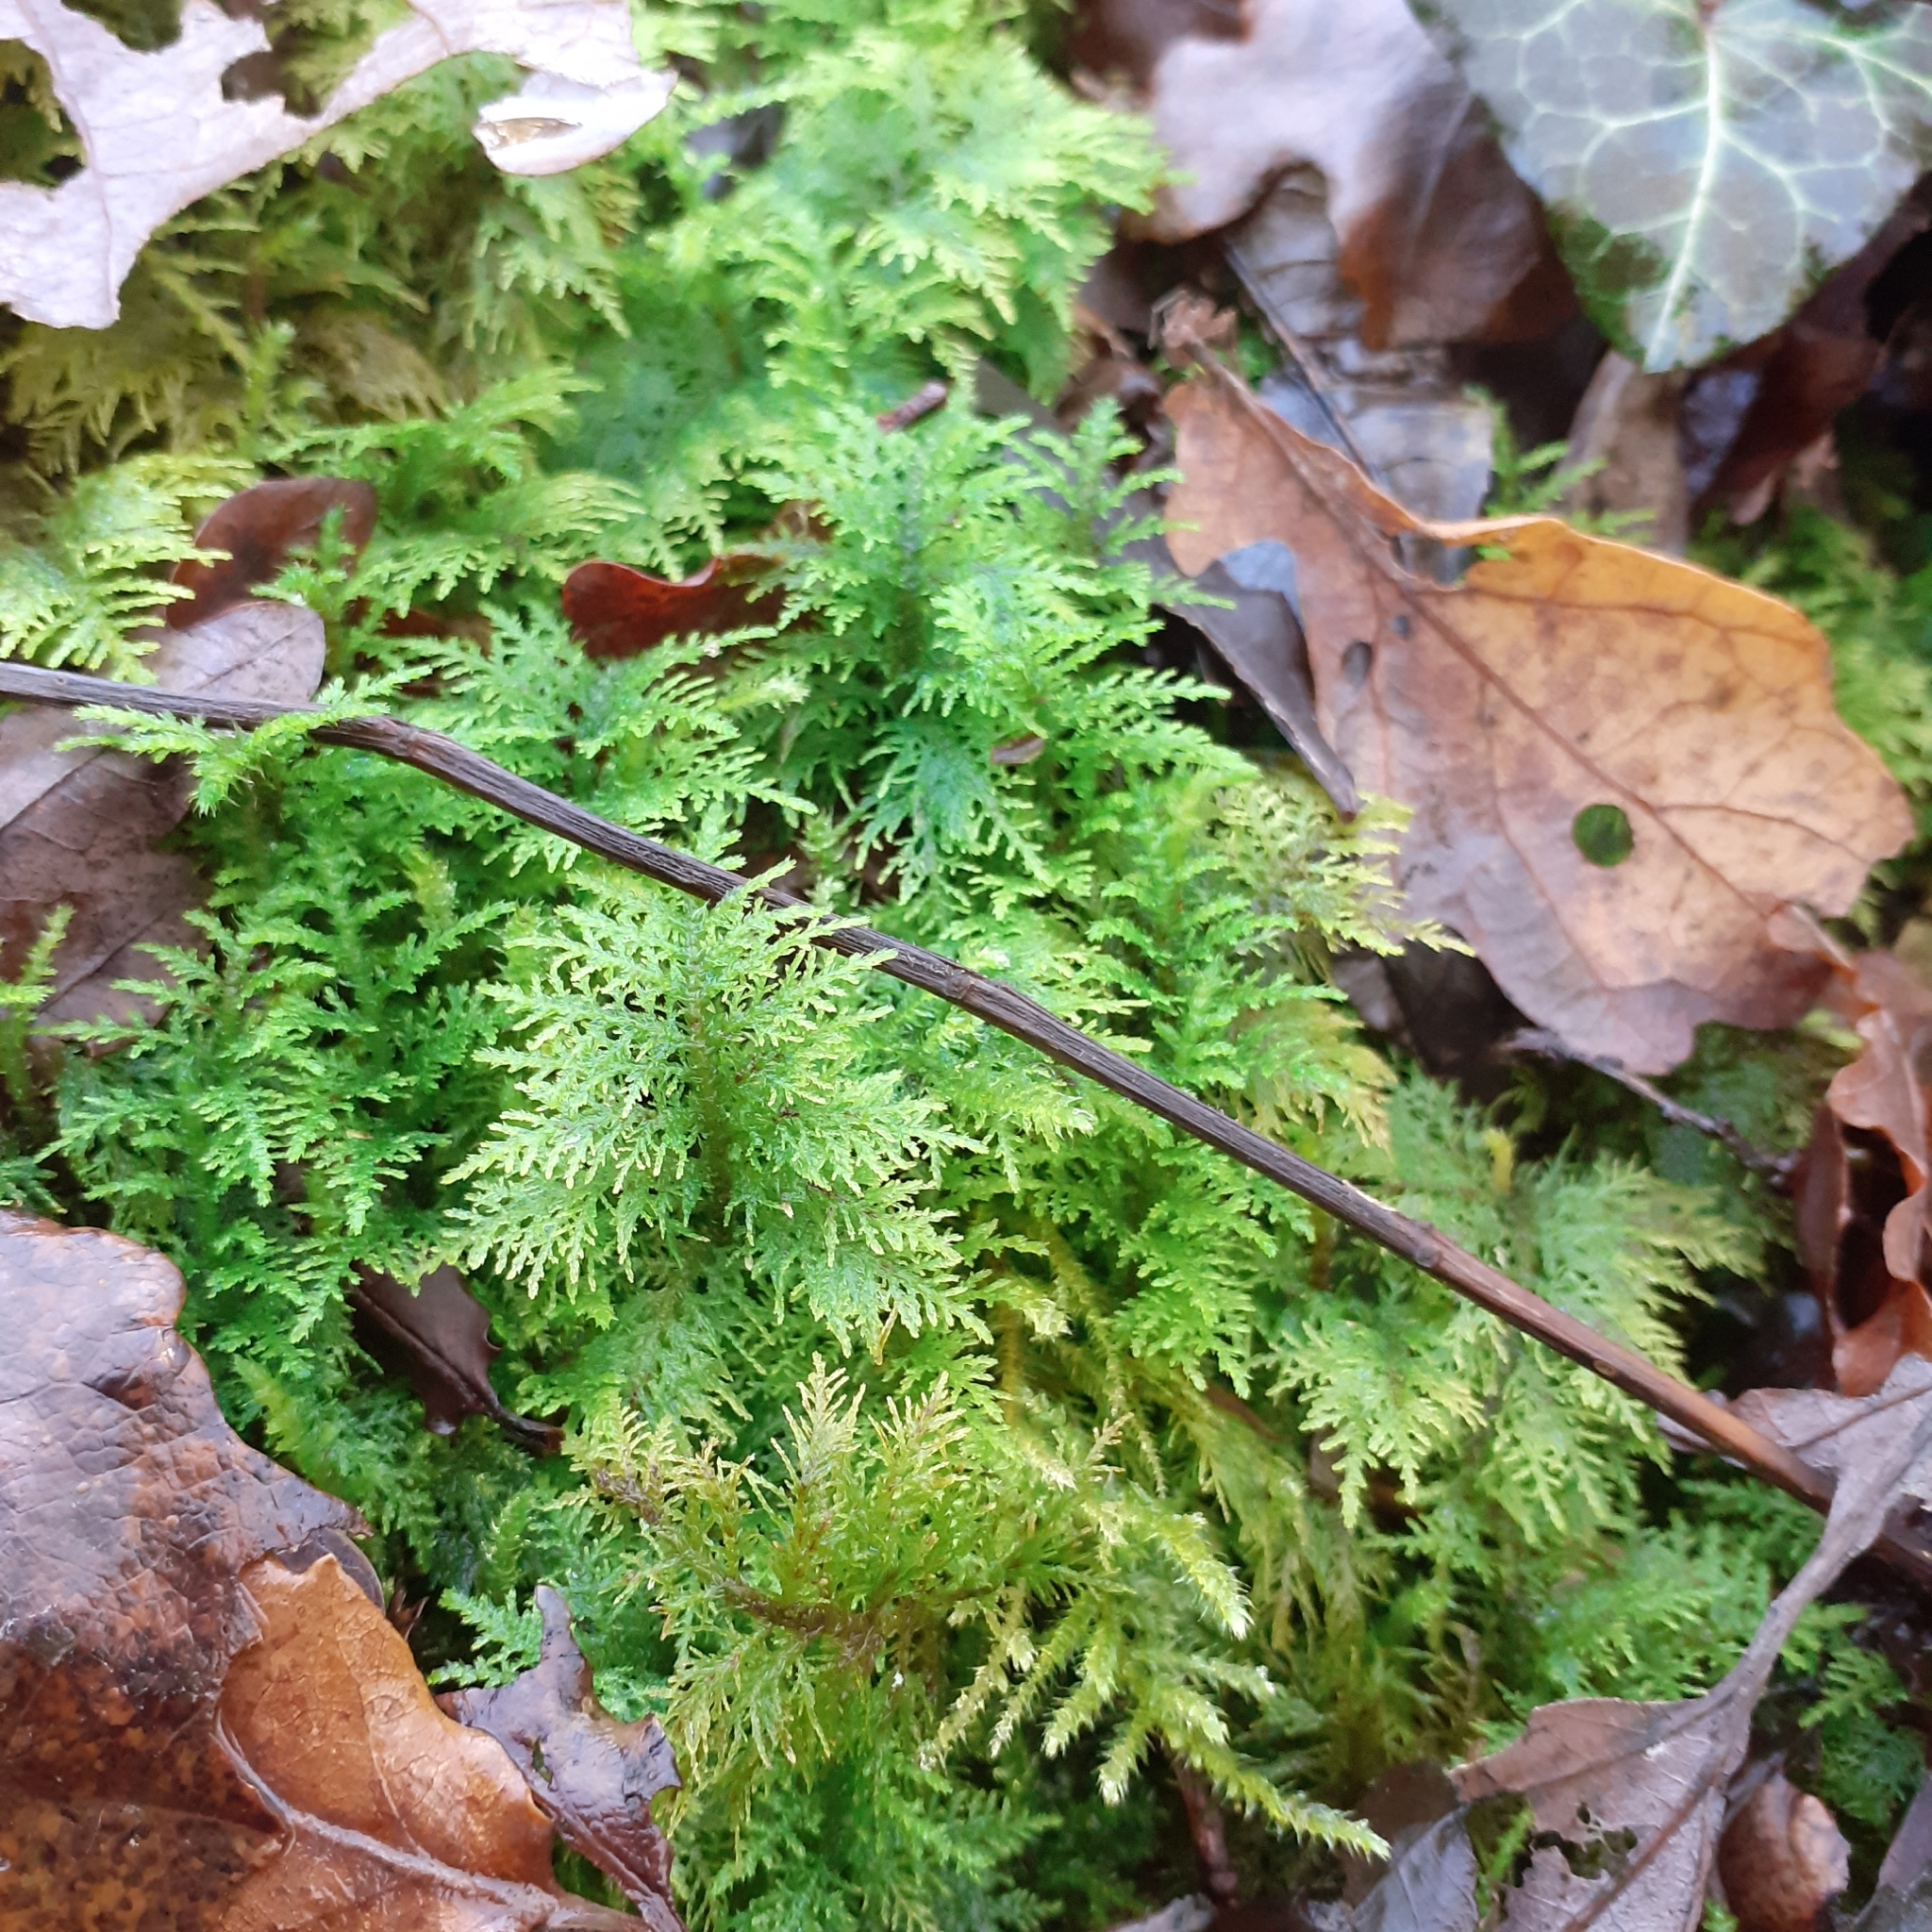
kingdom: Plantae
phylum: Bryophyta
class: Bryopsida
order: Hypnales
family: Thuidiaceae
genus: Thuidium
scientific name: Thuidium tamariscinum
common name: Common tamarisk-moss
